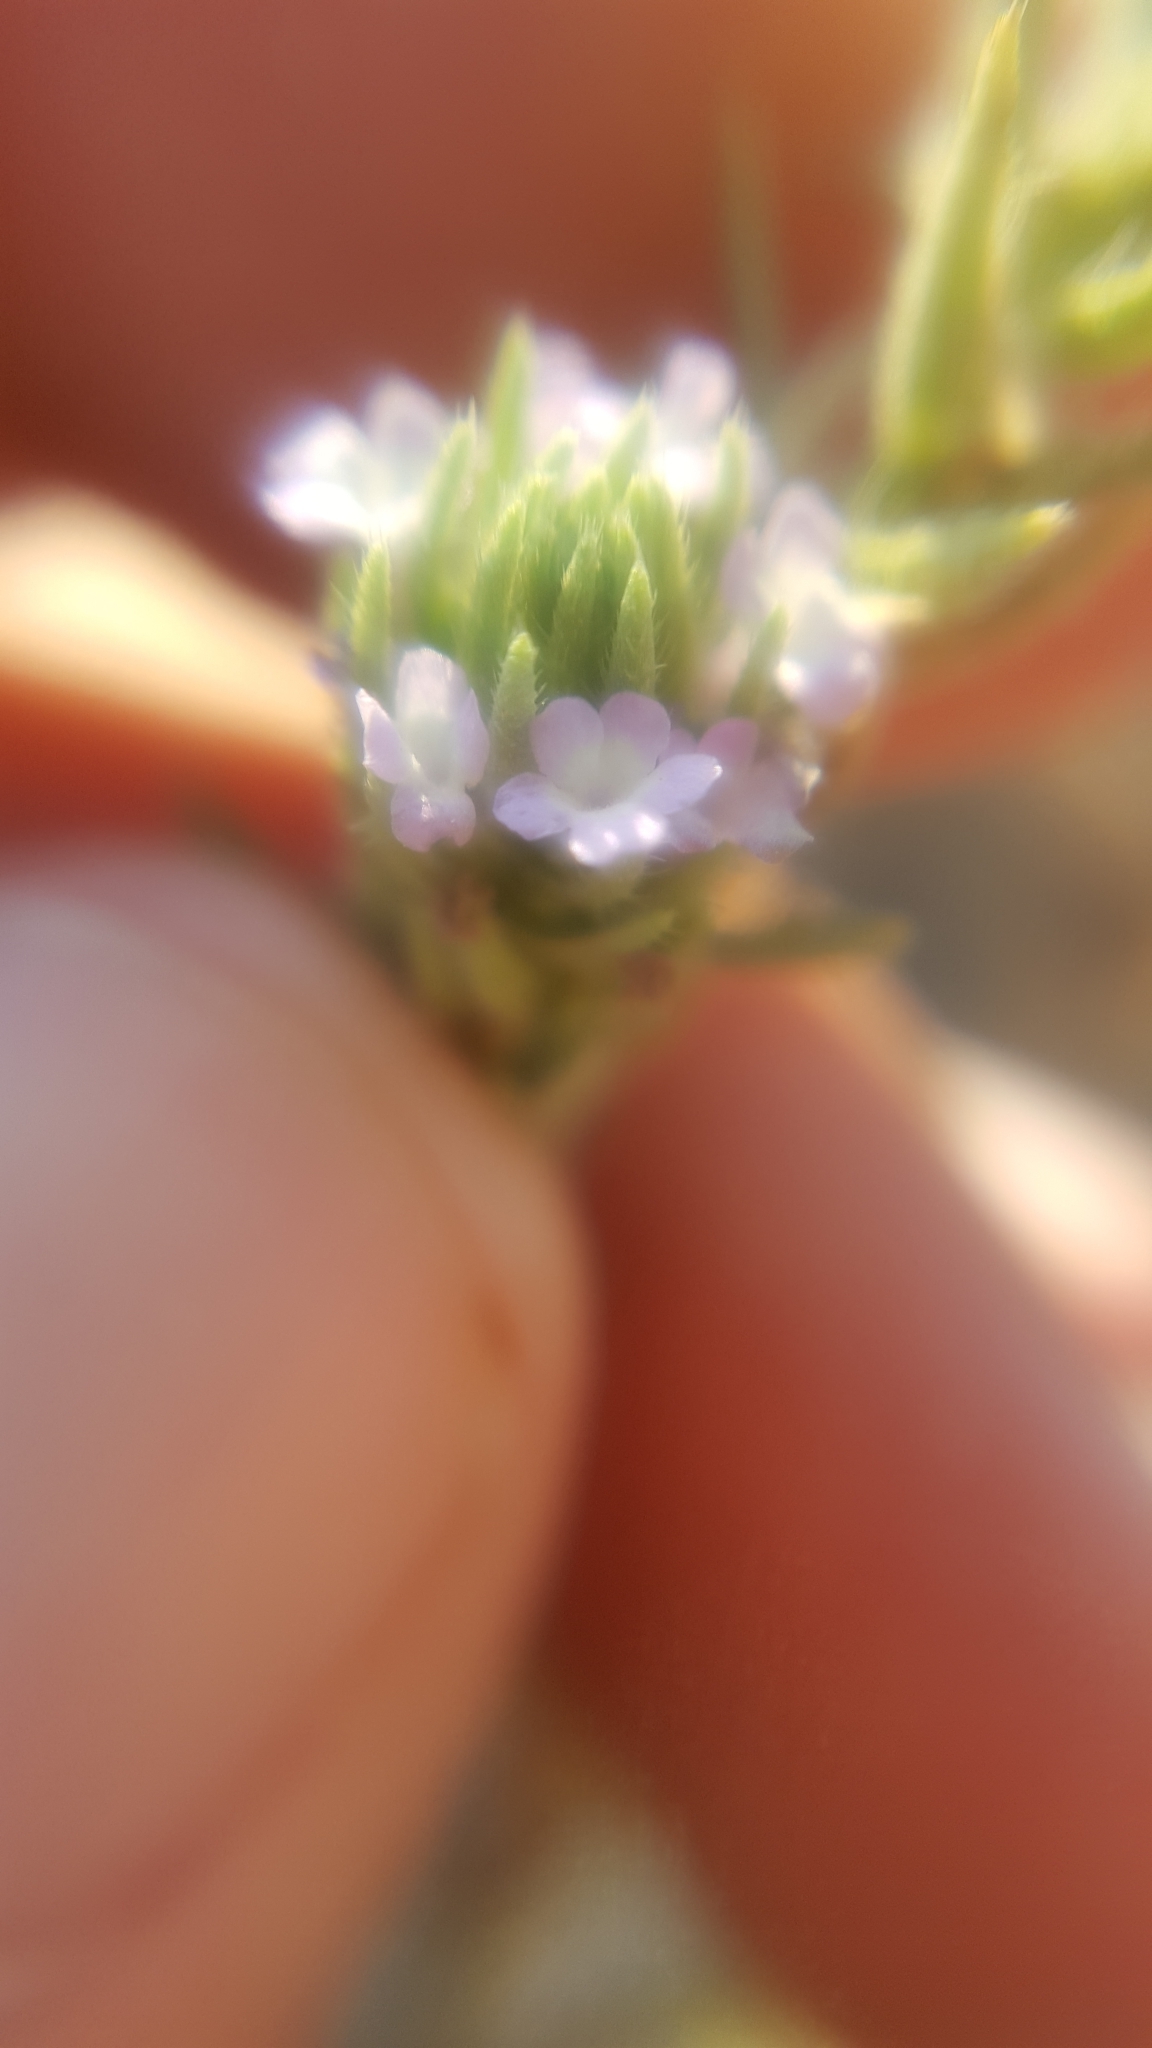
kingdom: Plantae
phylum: Tracheophyta
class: Magnoliopsida
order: Lamiales
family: Verbenaceae
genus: Verbena
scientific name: Verbena bracteata
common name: Bracted vervain
